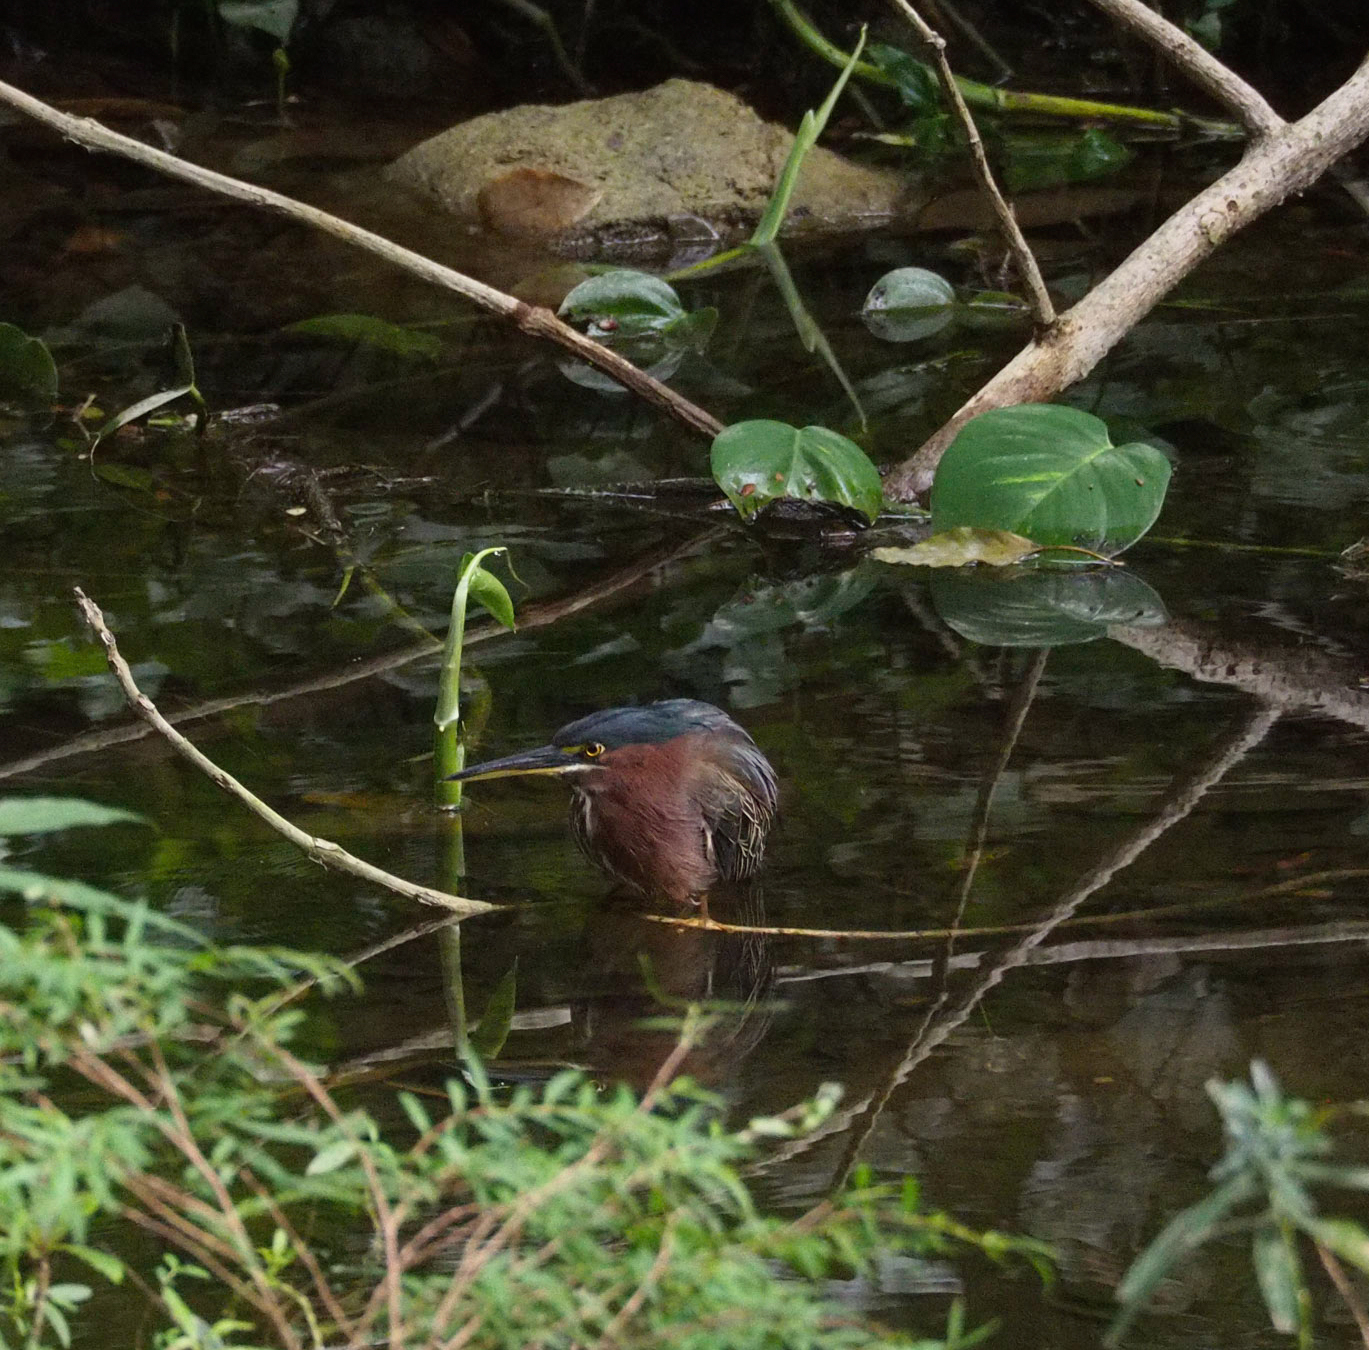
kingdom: Animalia
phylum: Chordata
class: Aves
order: Pelecaniformes
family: Ardeidae
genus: Butorides
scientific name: Butorides virescens
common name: Green heron
